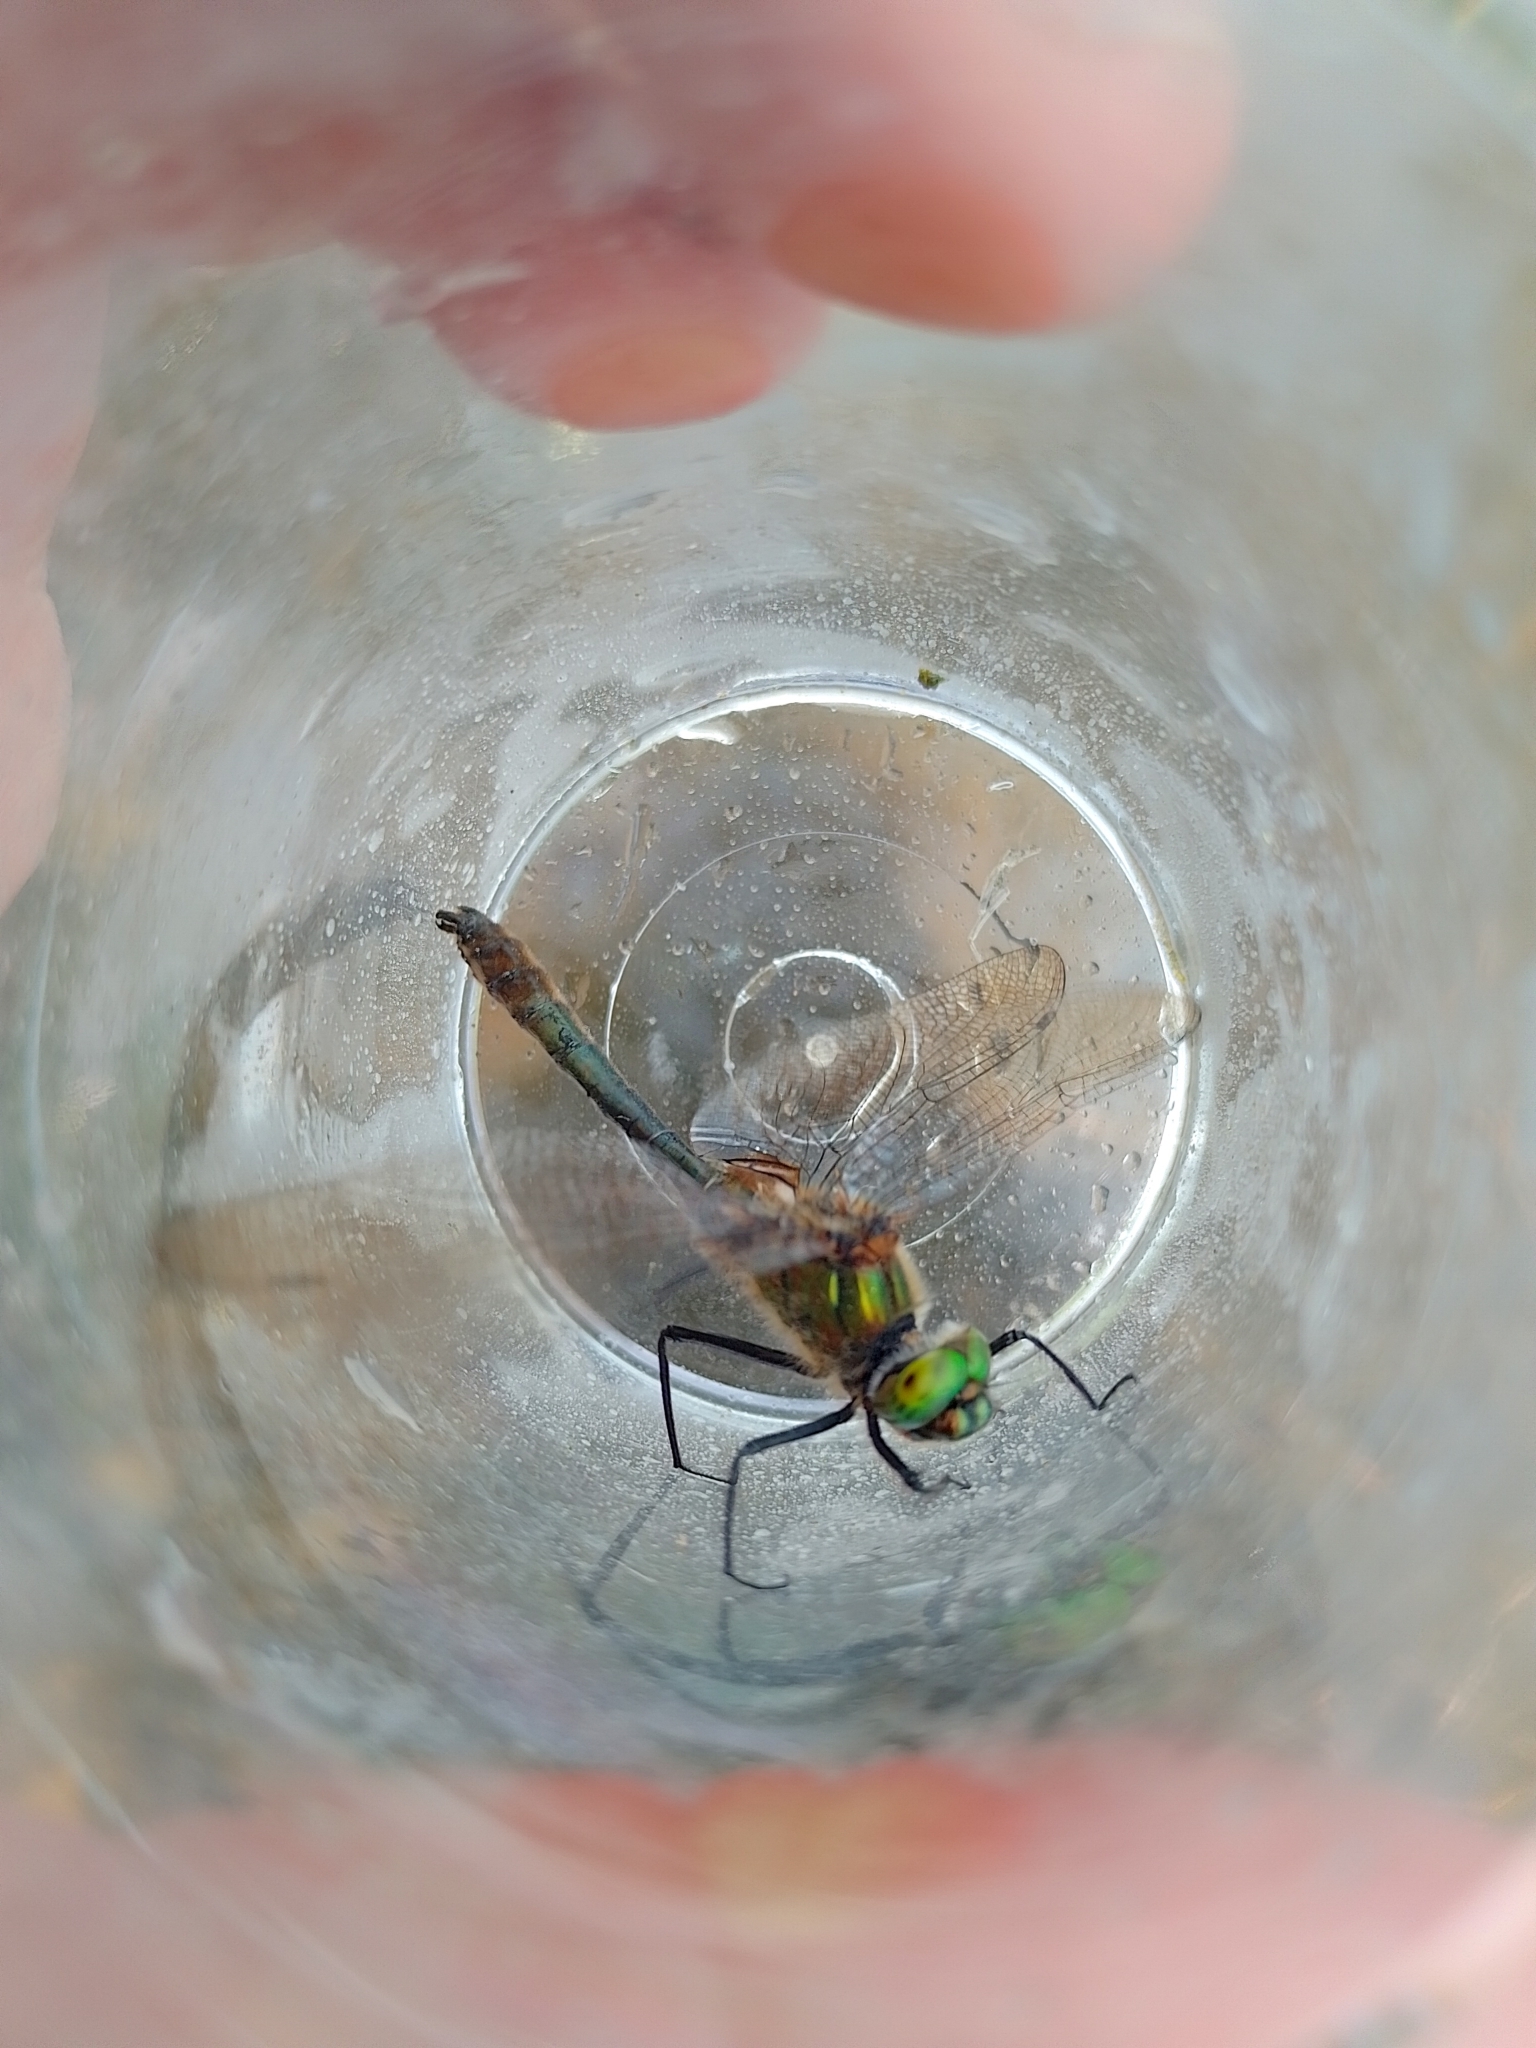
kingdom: Animalia
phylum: Arthropoda
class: Insecta
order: Odonata
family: Corduliidae
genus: Cordulia
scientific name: Cordulia aenea
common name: Downy emerald
